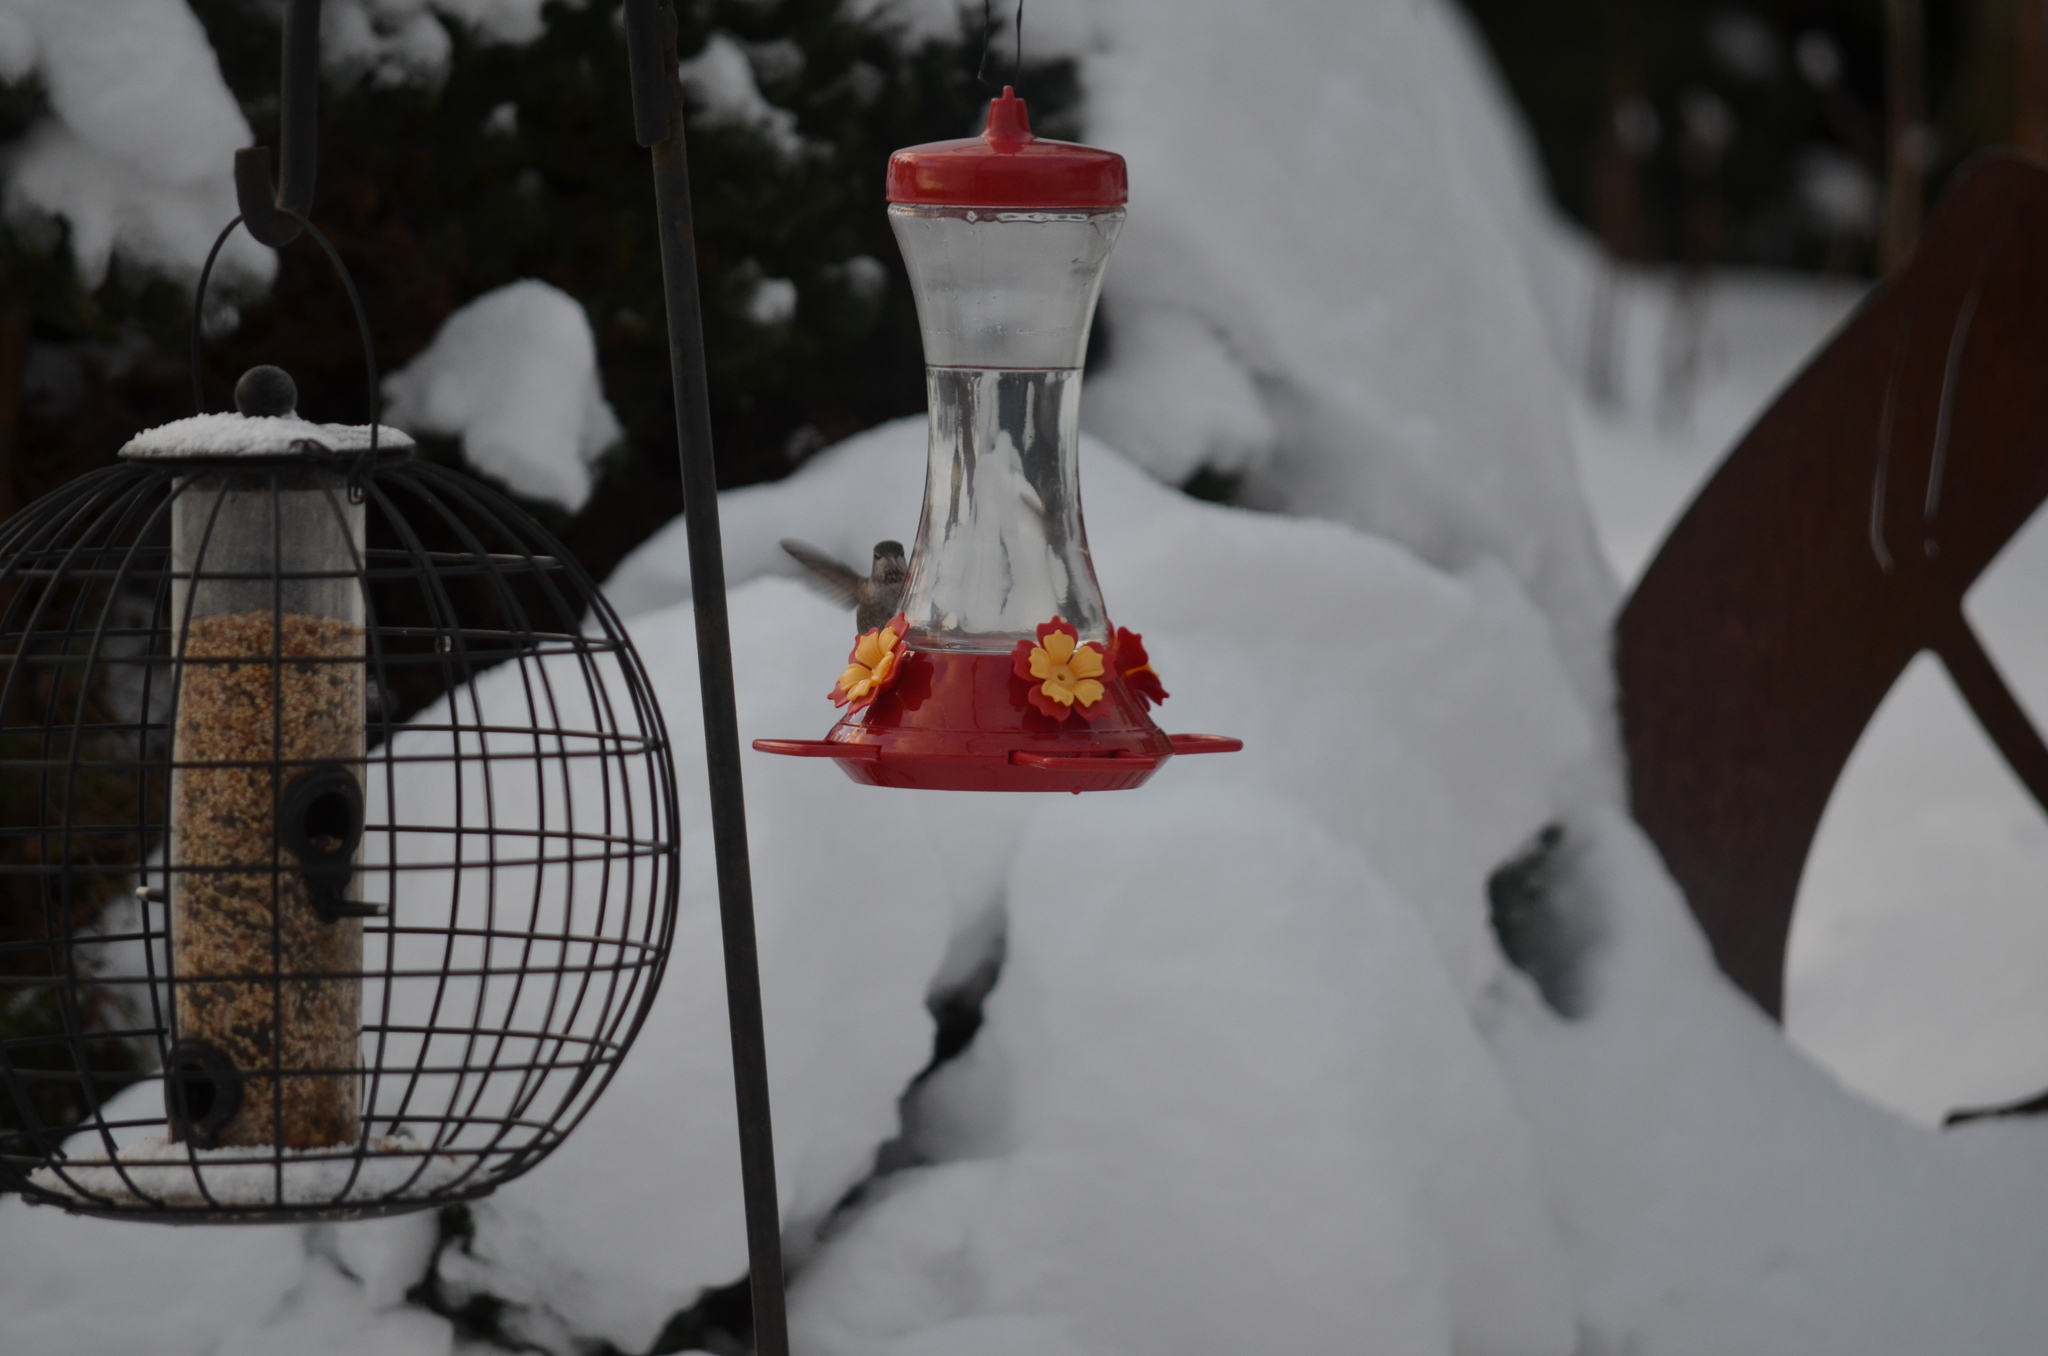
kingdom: Animalia
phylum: Chordata
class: Aves
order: Apodiformes
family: Trochilidae
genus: Calypte
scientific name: Calypte anna
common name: Anna's hummingbird
